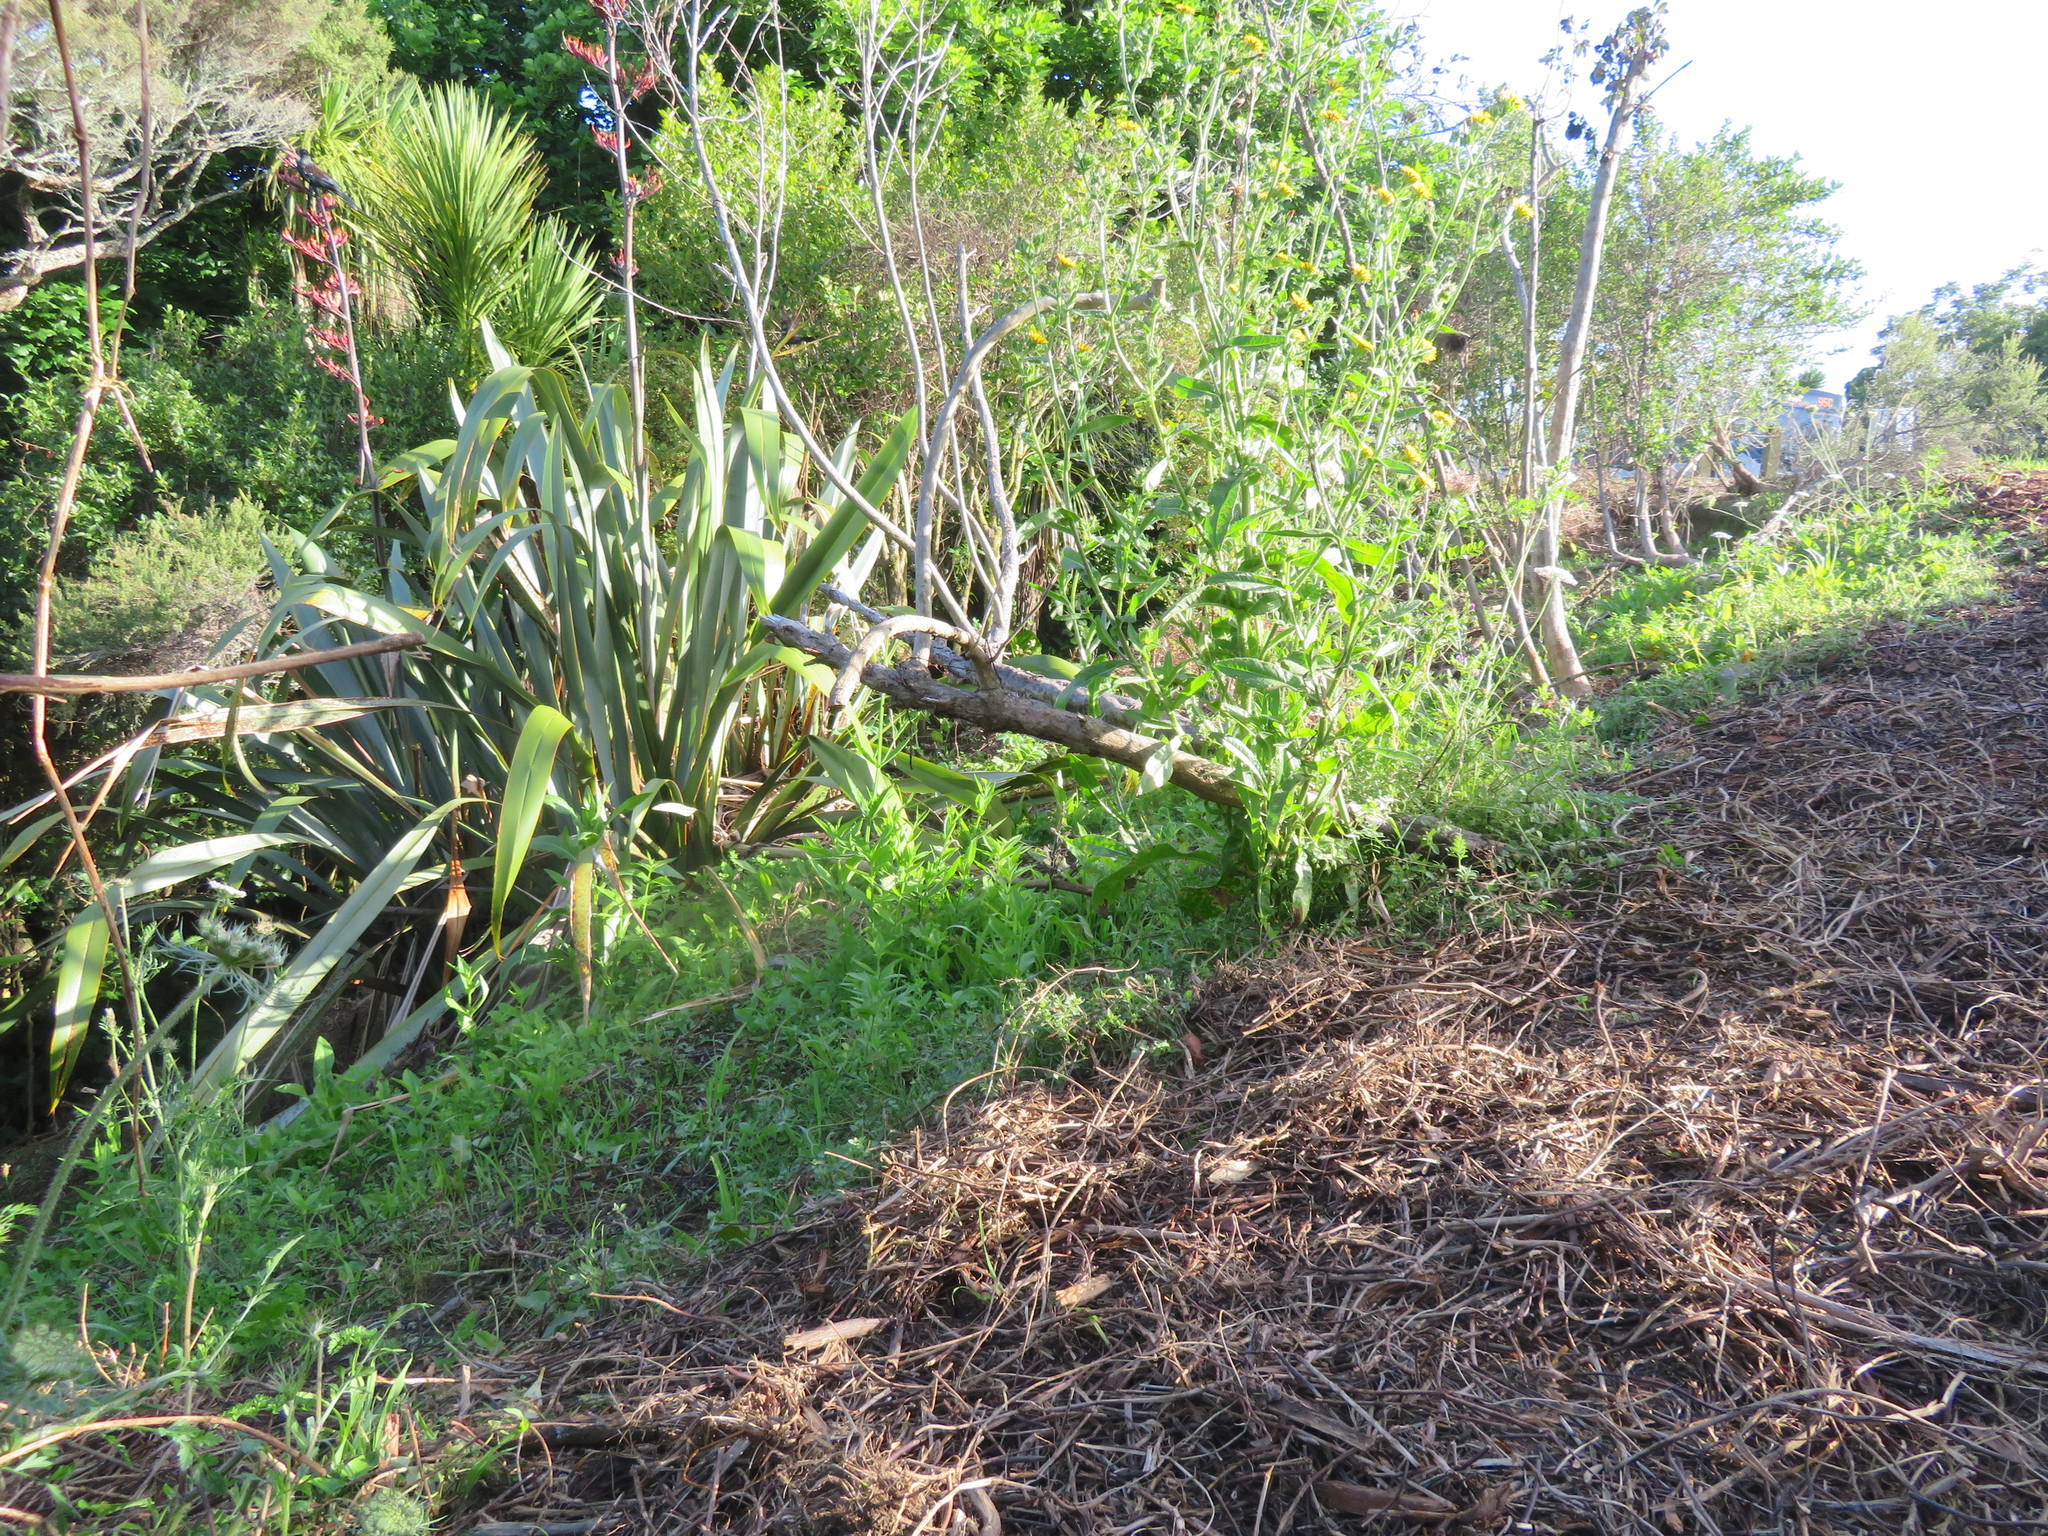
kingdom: Plantae
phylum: Tracheophyta
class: Magnoliopsida
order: Asterales
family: Asteraceae
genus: Helminthotheca
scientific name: Helminthotheca echioides
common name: Ox-tongue
